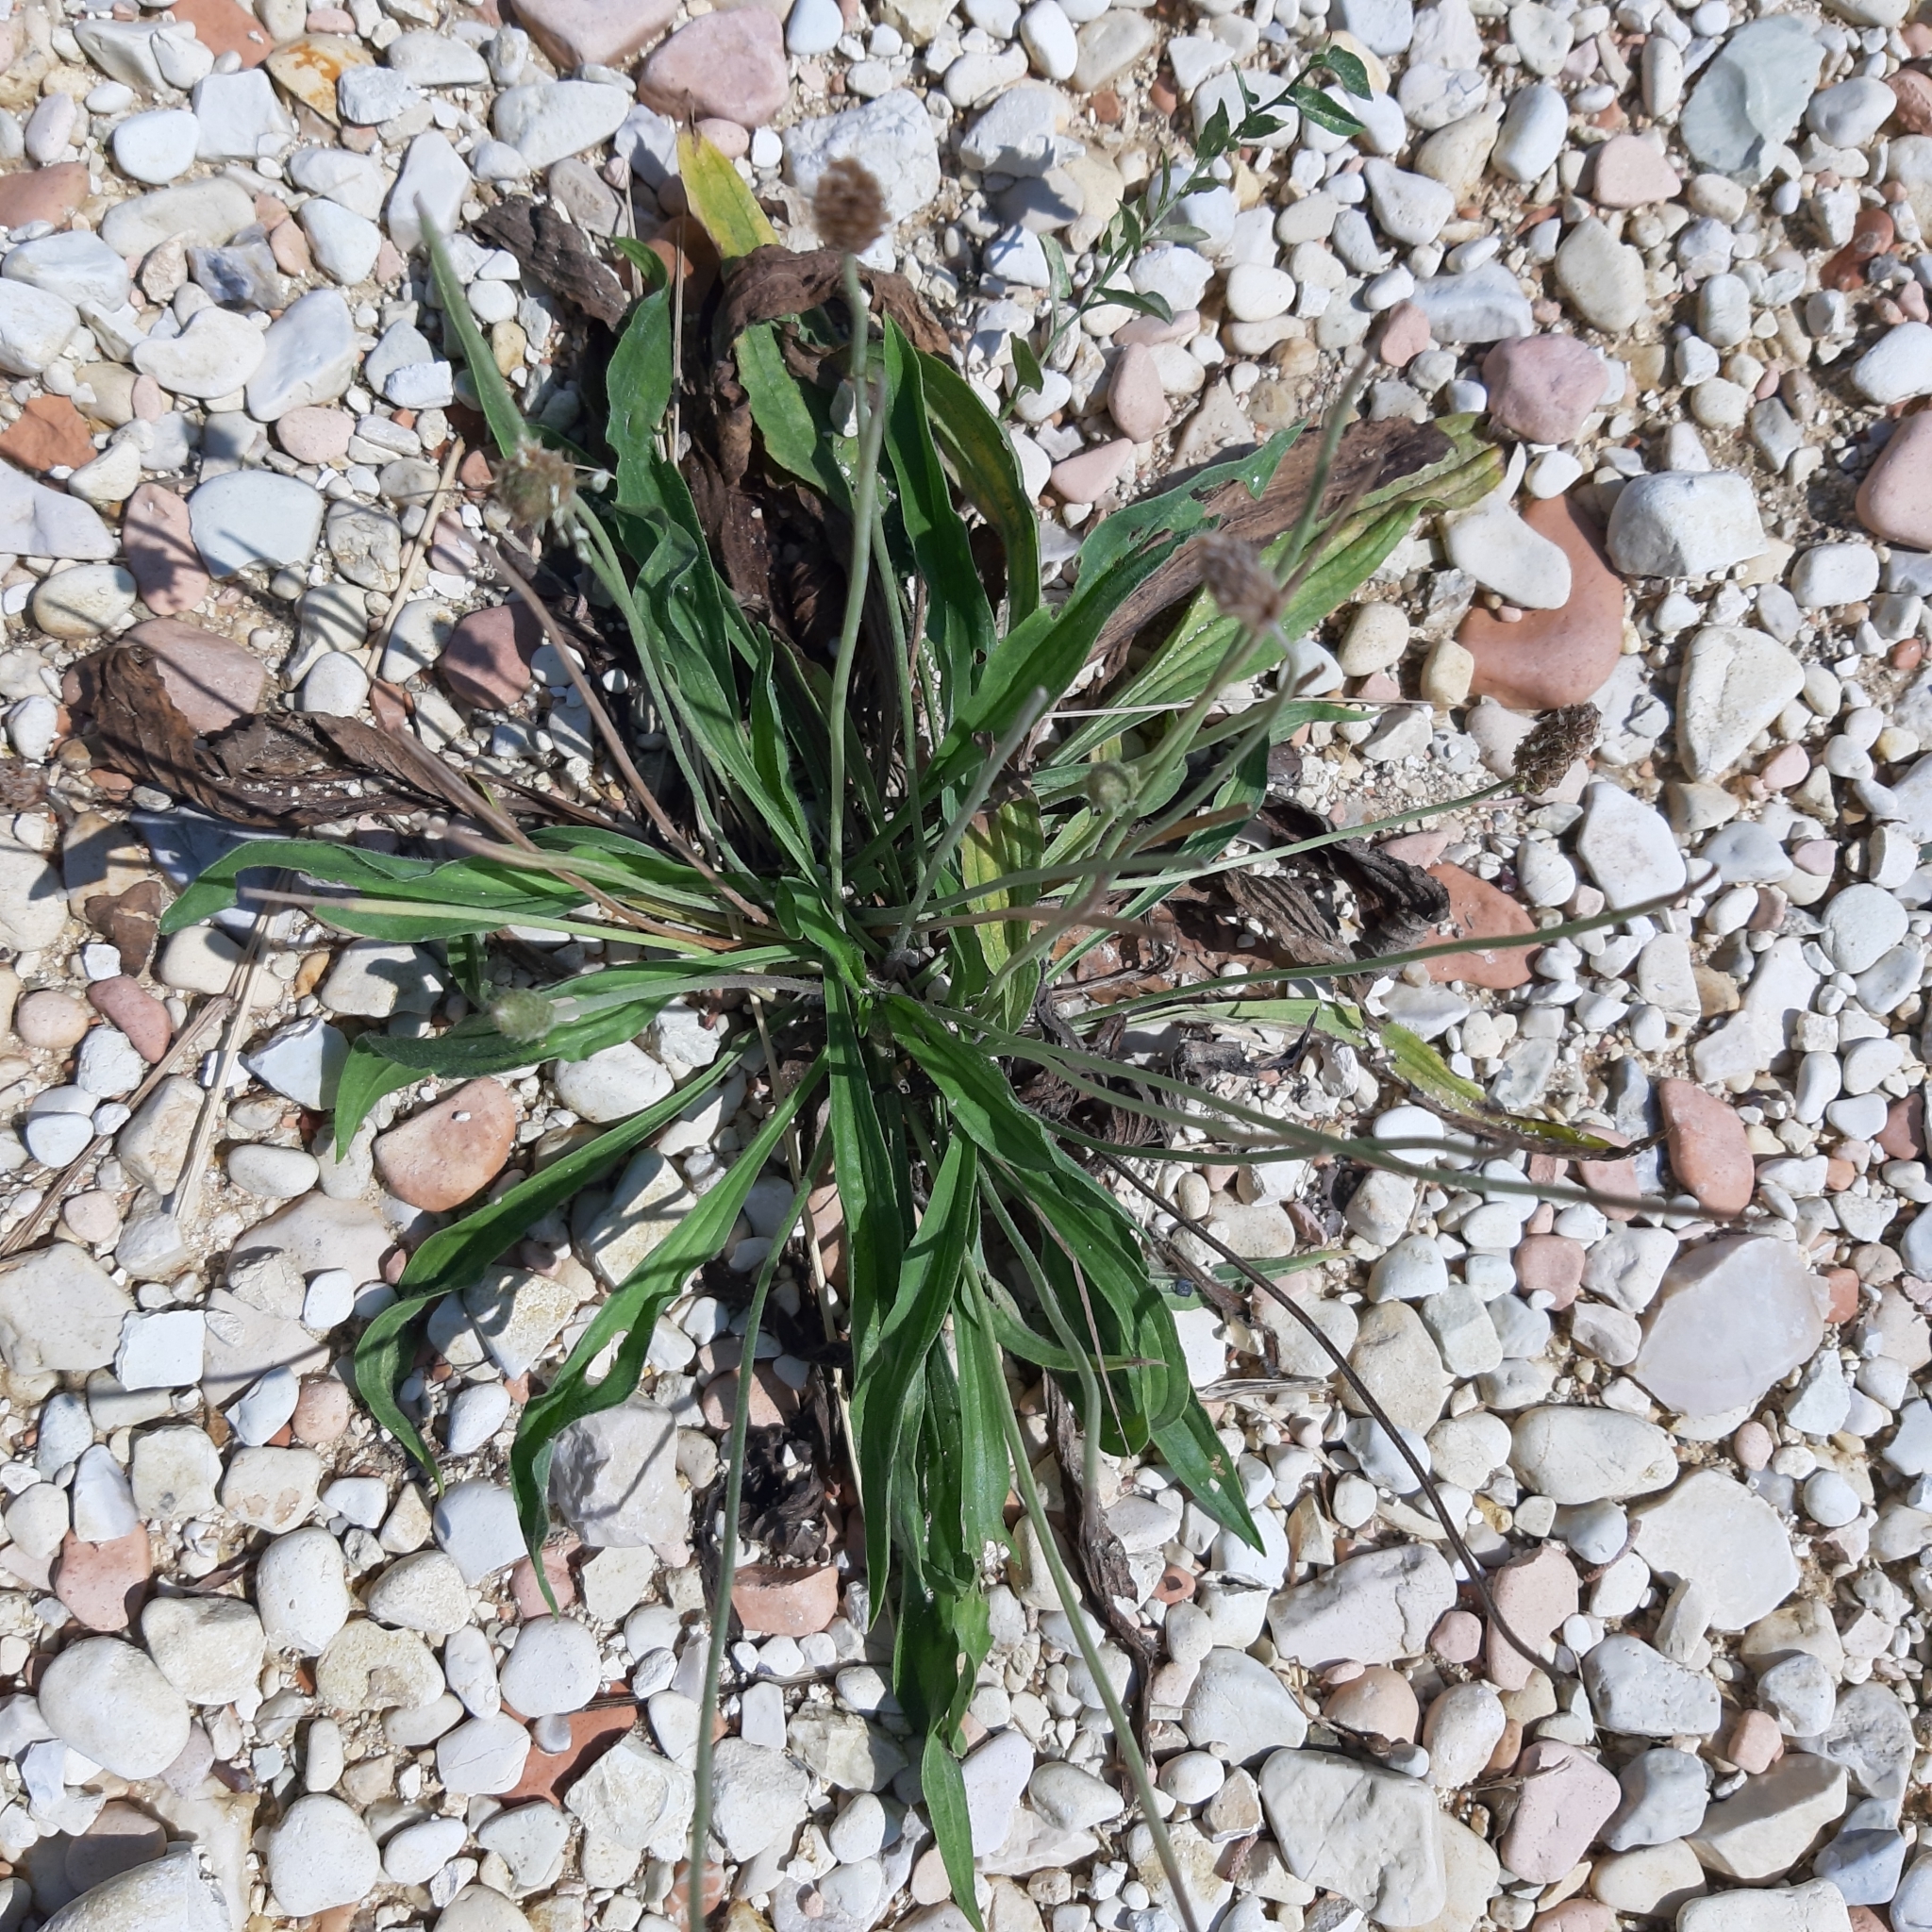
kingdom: Plantae
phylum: Tracheophyta
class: Magnoliopsida
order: Lamiales
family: Plantaginaceae
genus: Plantago
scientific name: Plantago lanceolata
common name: Ribwort plantain
